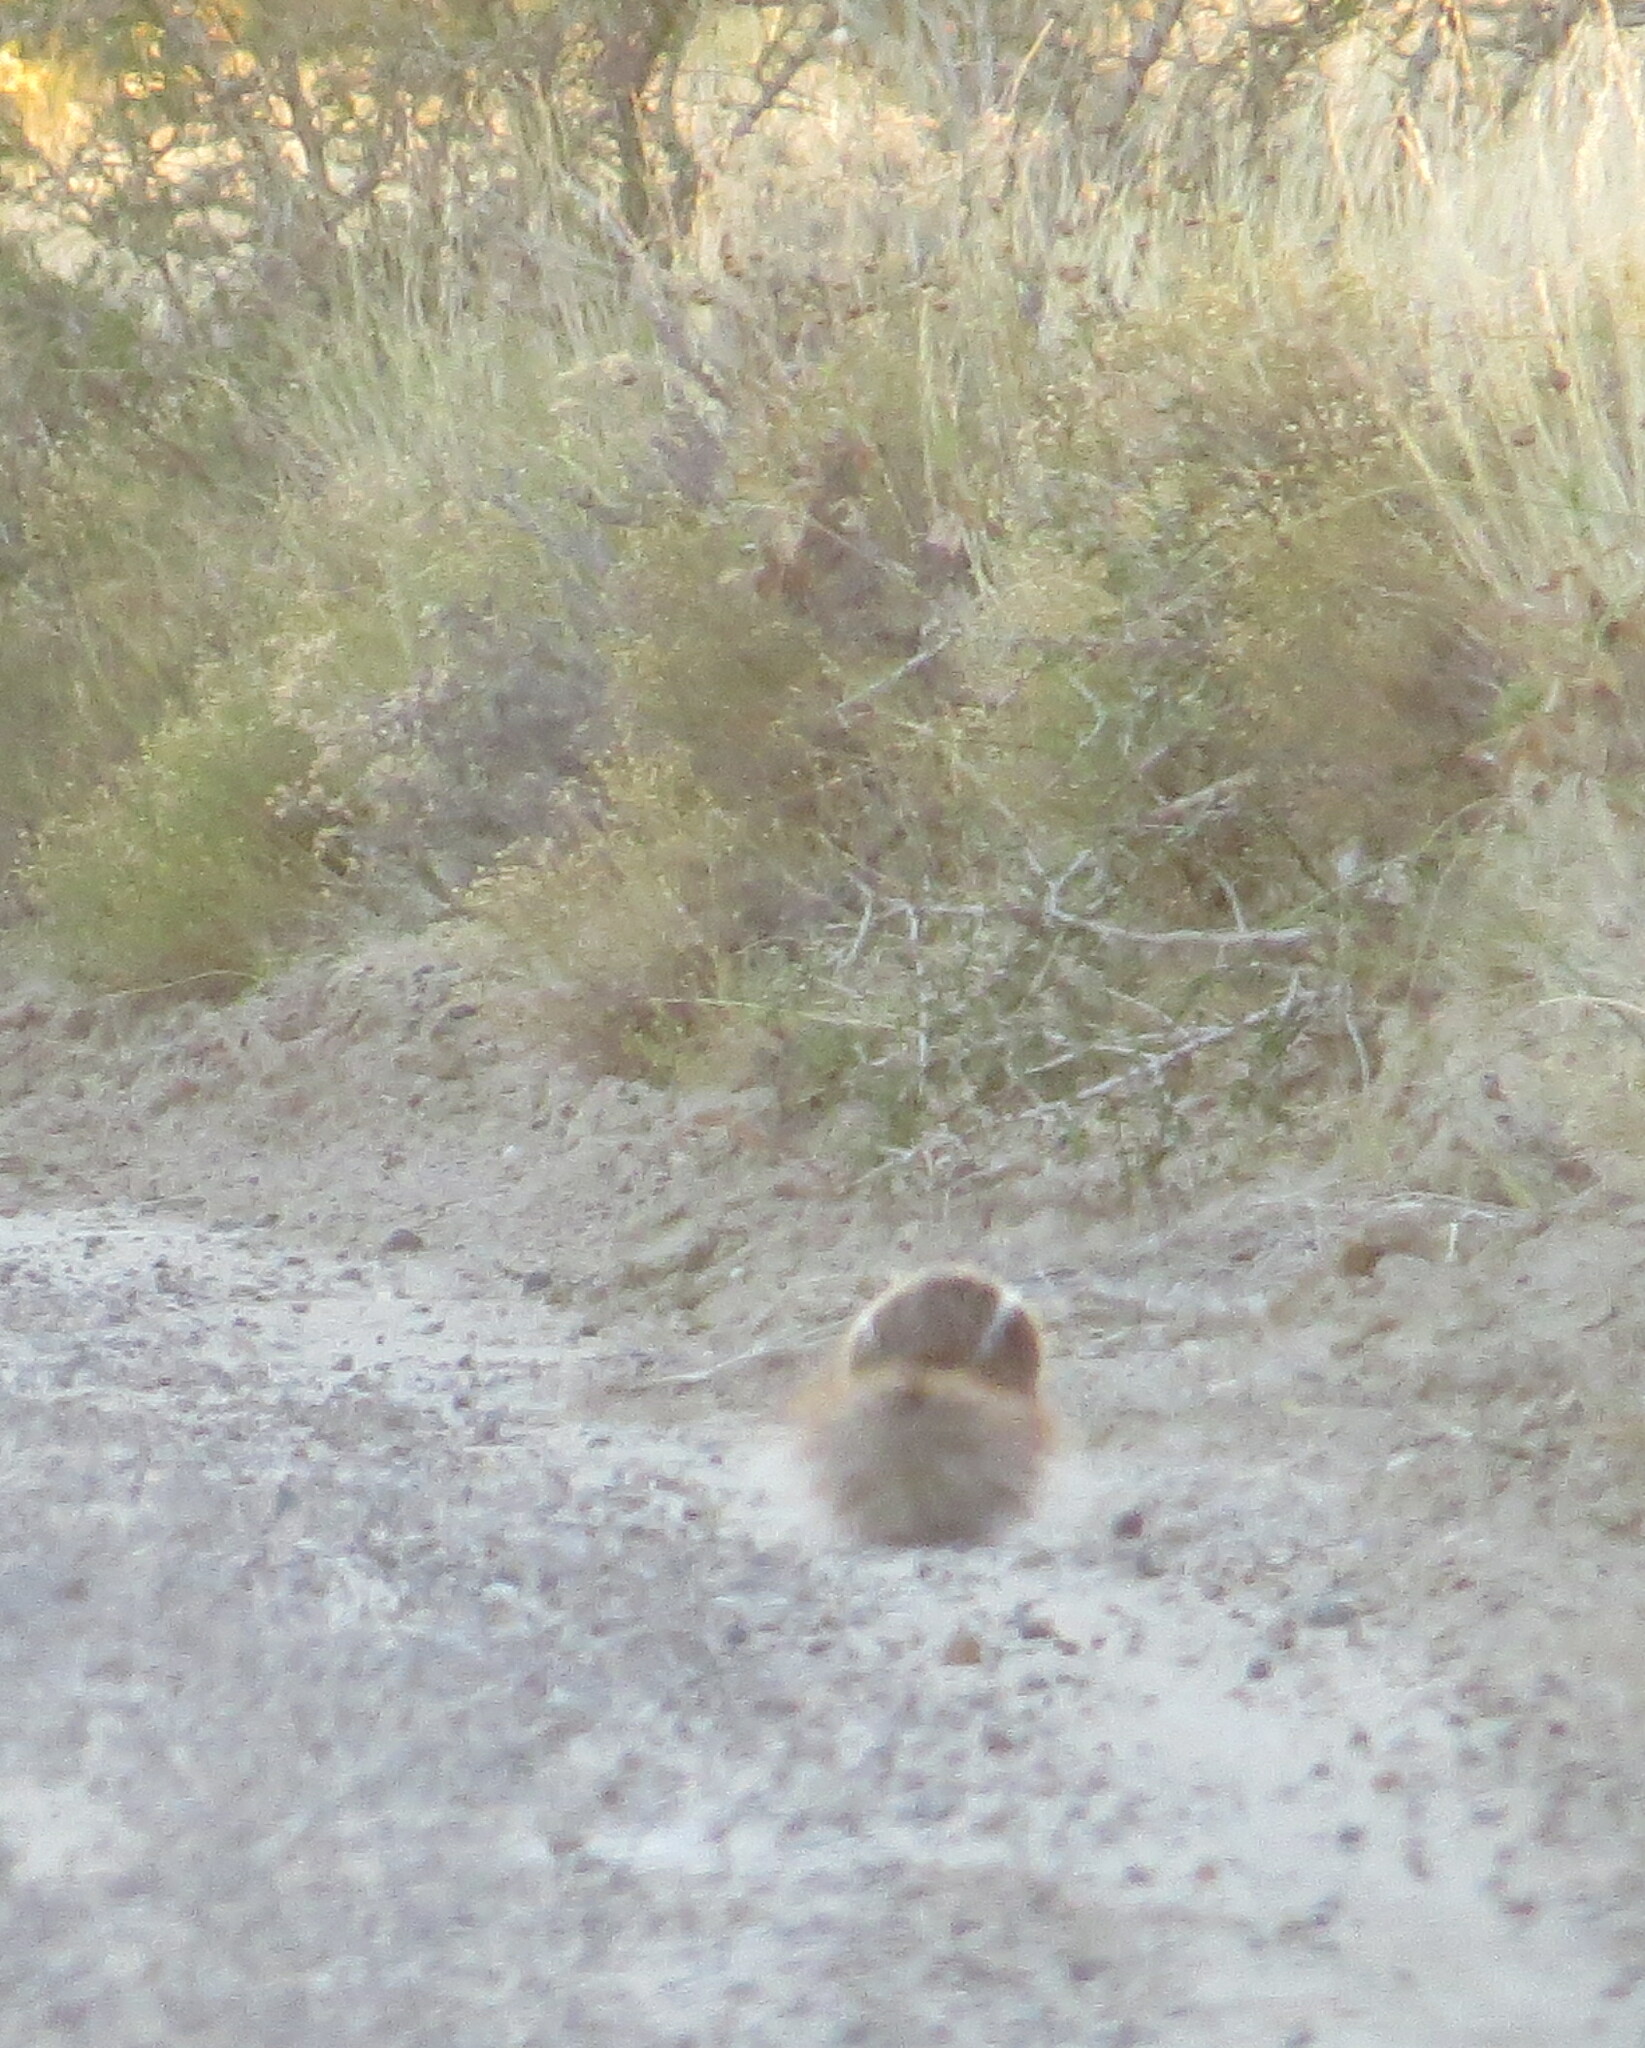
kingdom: Animalia
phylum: Chordata
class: Mammalia
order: Carnivora
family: Mephitidae
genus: Conepatus
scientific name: Conepatus chinga
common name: Molina's hog-nosed skunk
